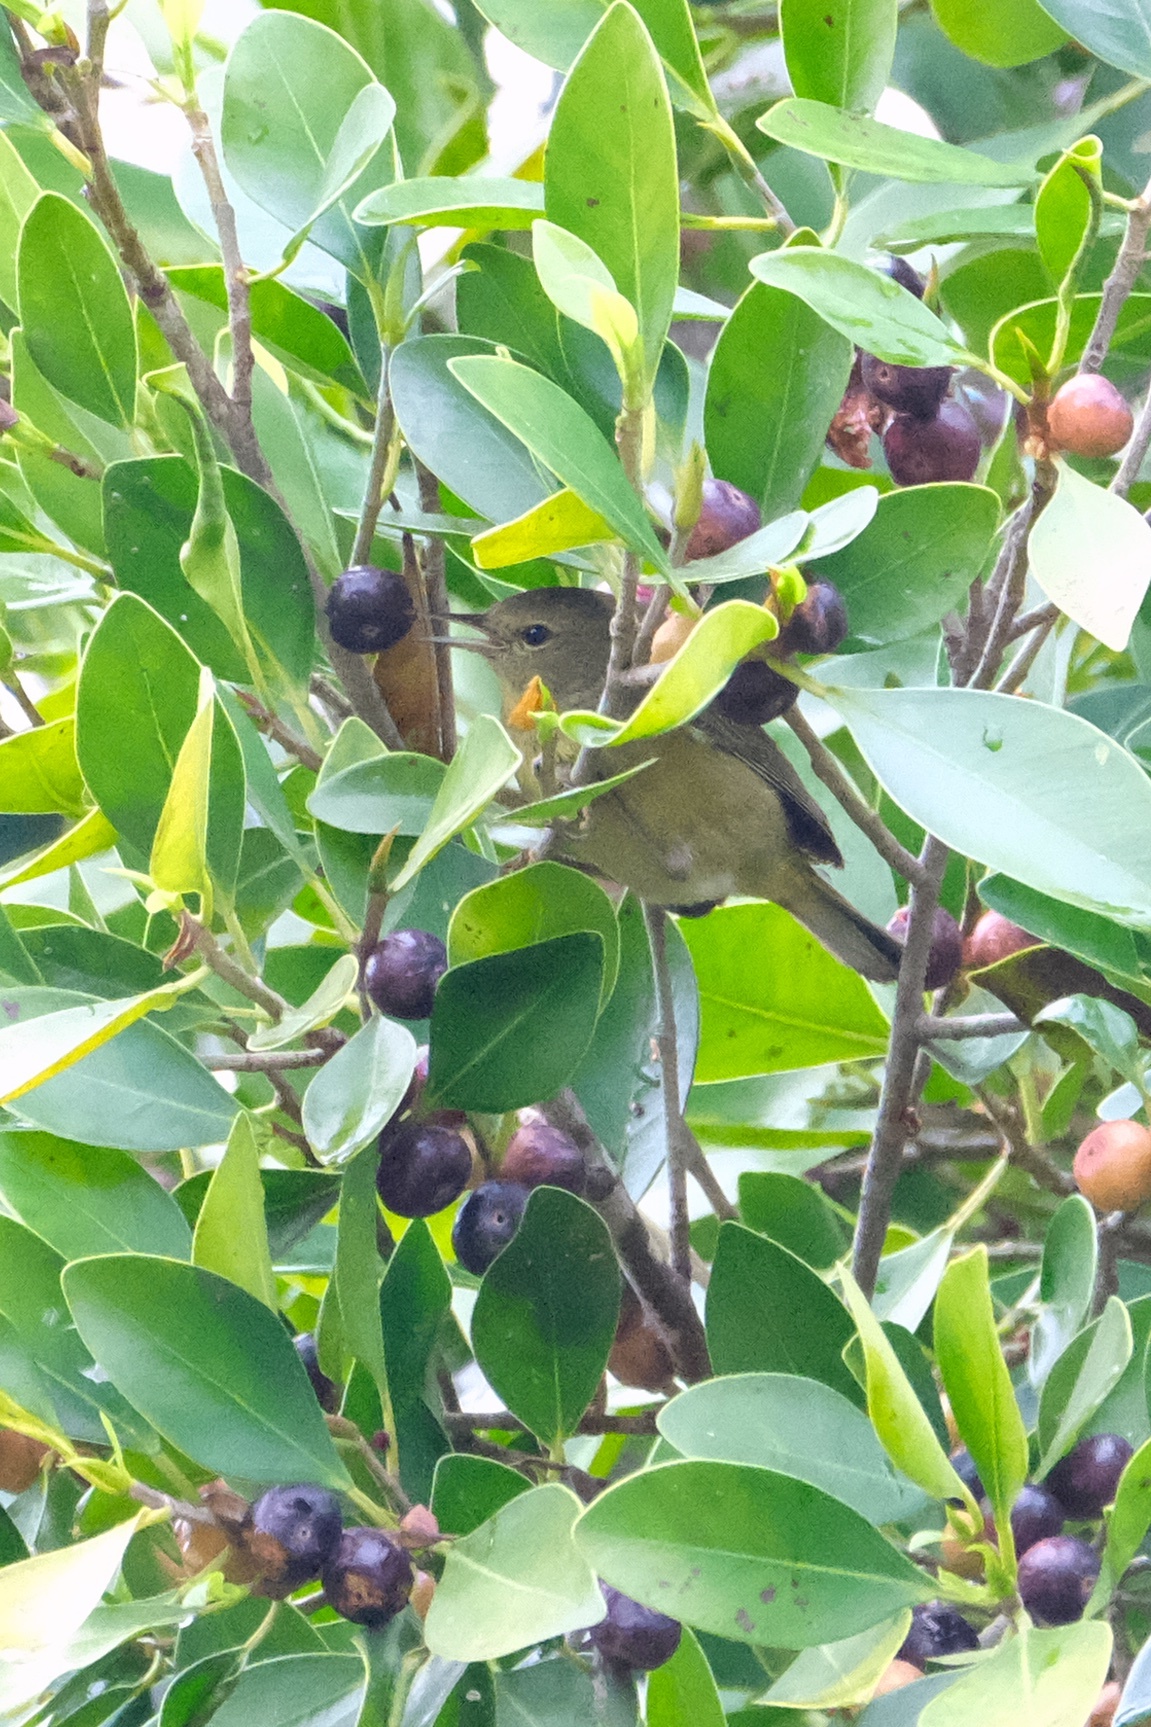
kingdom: Animalia
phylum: Chordata
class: Aves
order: Passeriformes
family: Parulidae
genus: Leiothlypis
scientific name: Leiothlypis celata
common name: Orange-crowned warbler
